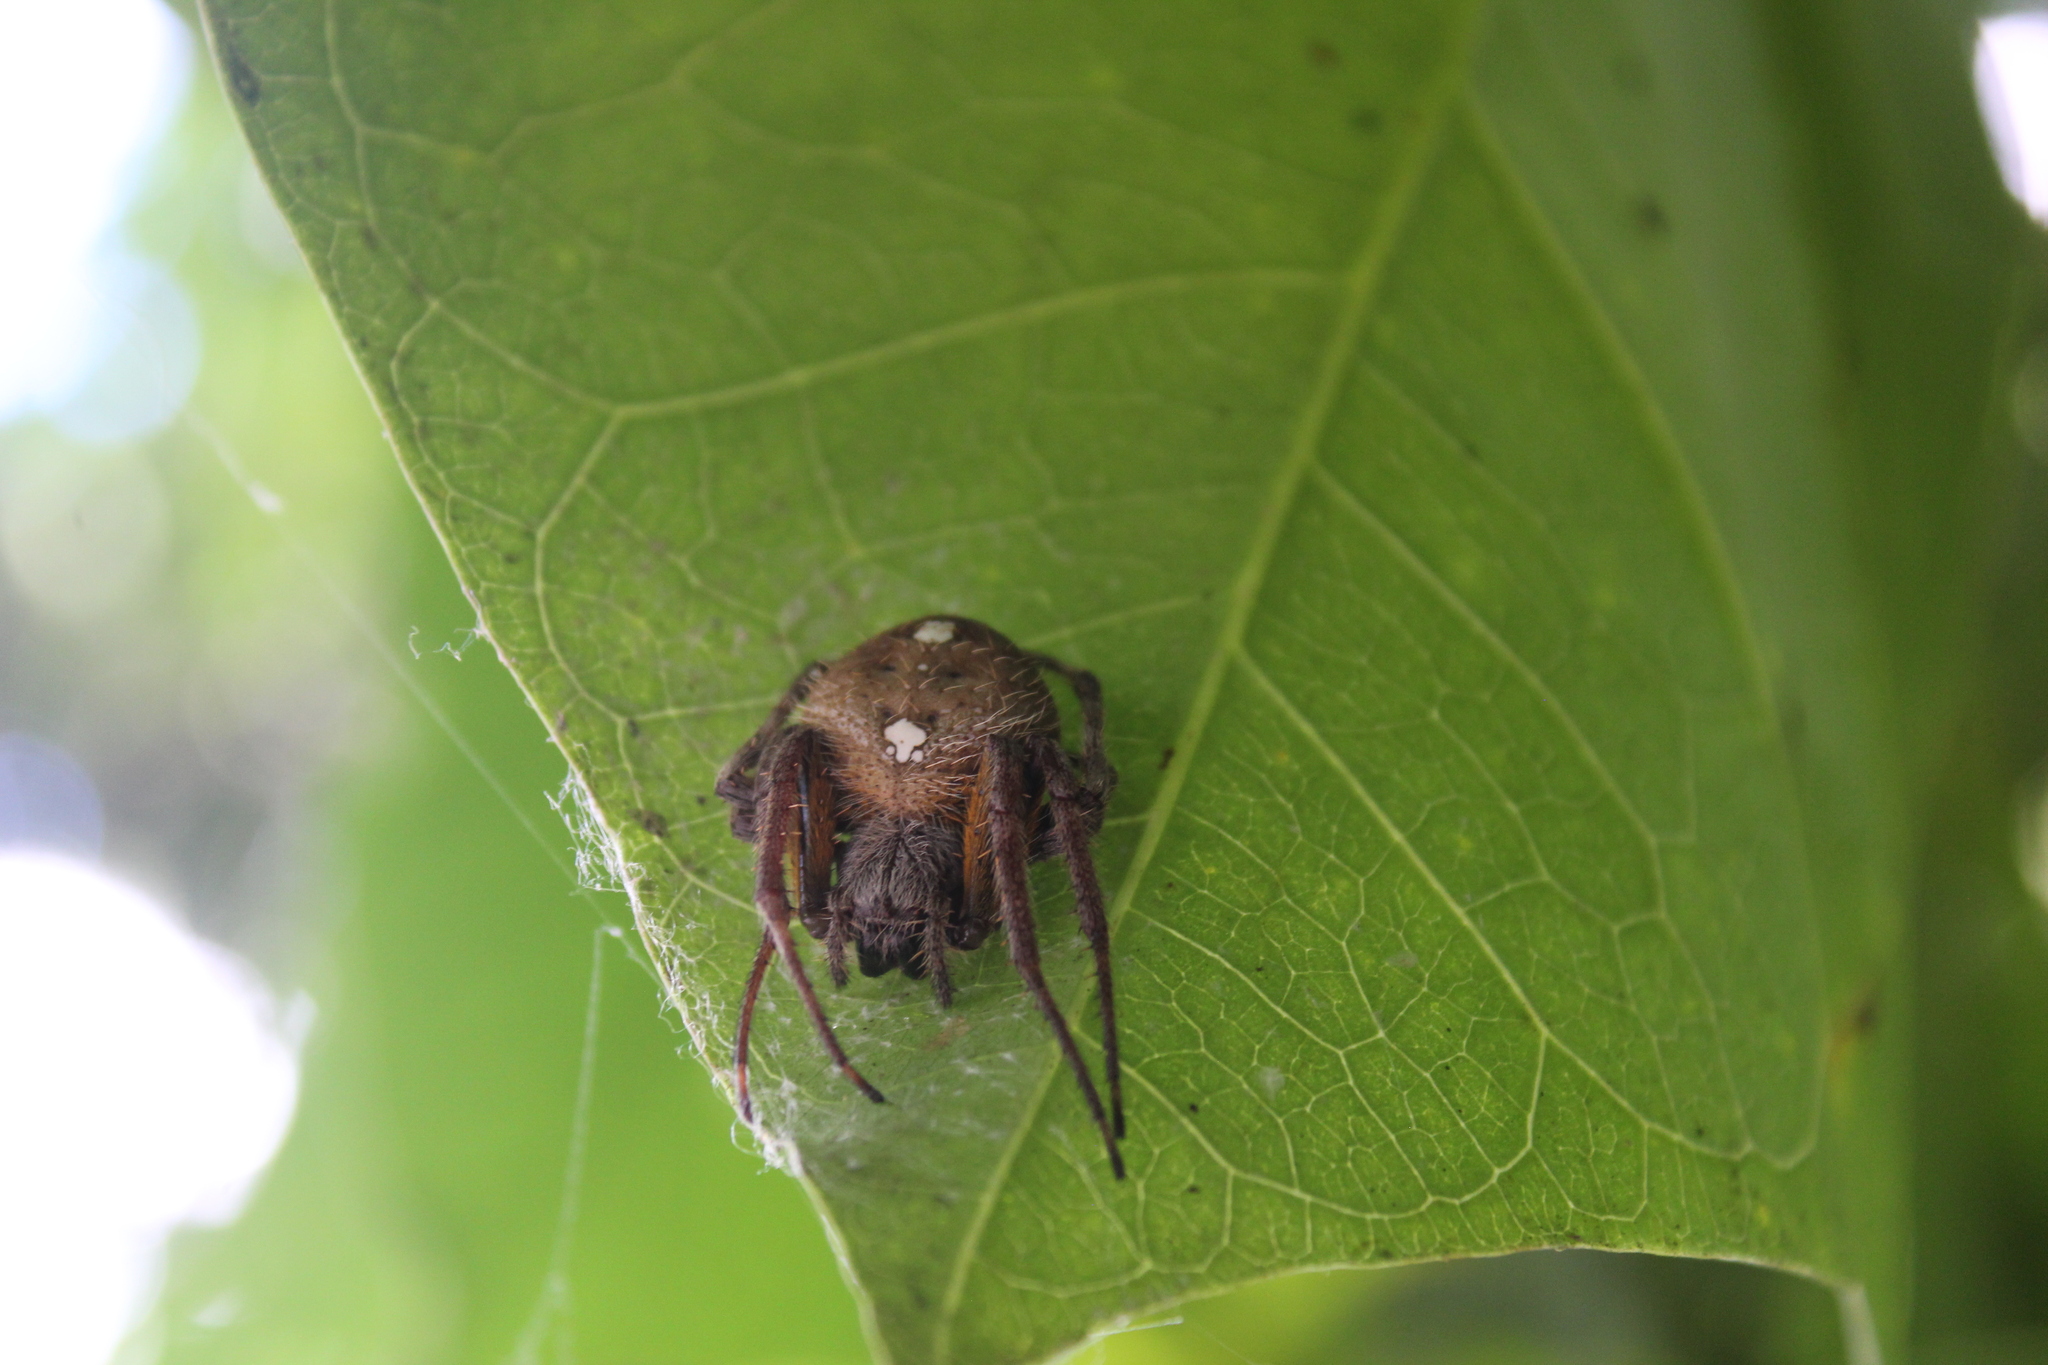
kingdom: Animalia
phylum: Arthropoda
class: Arachnida
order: Araneae
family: Araneidae
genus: Eriophora
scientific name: Eriophora ravilla
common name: Orb weavers
